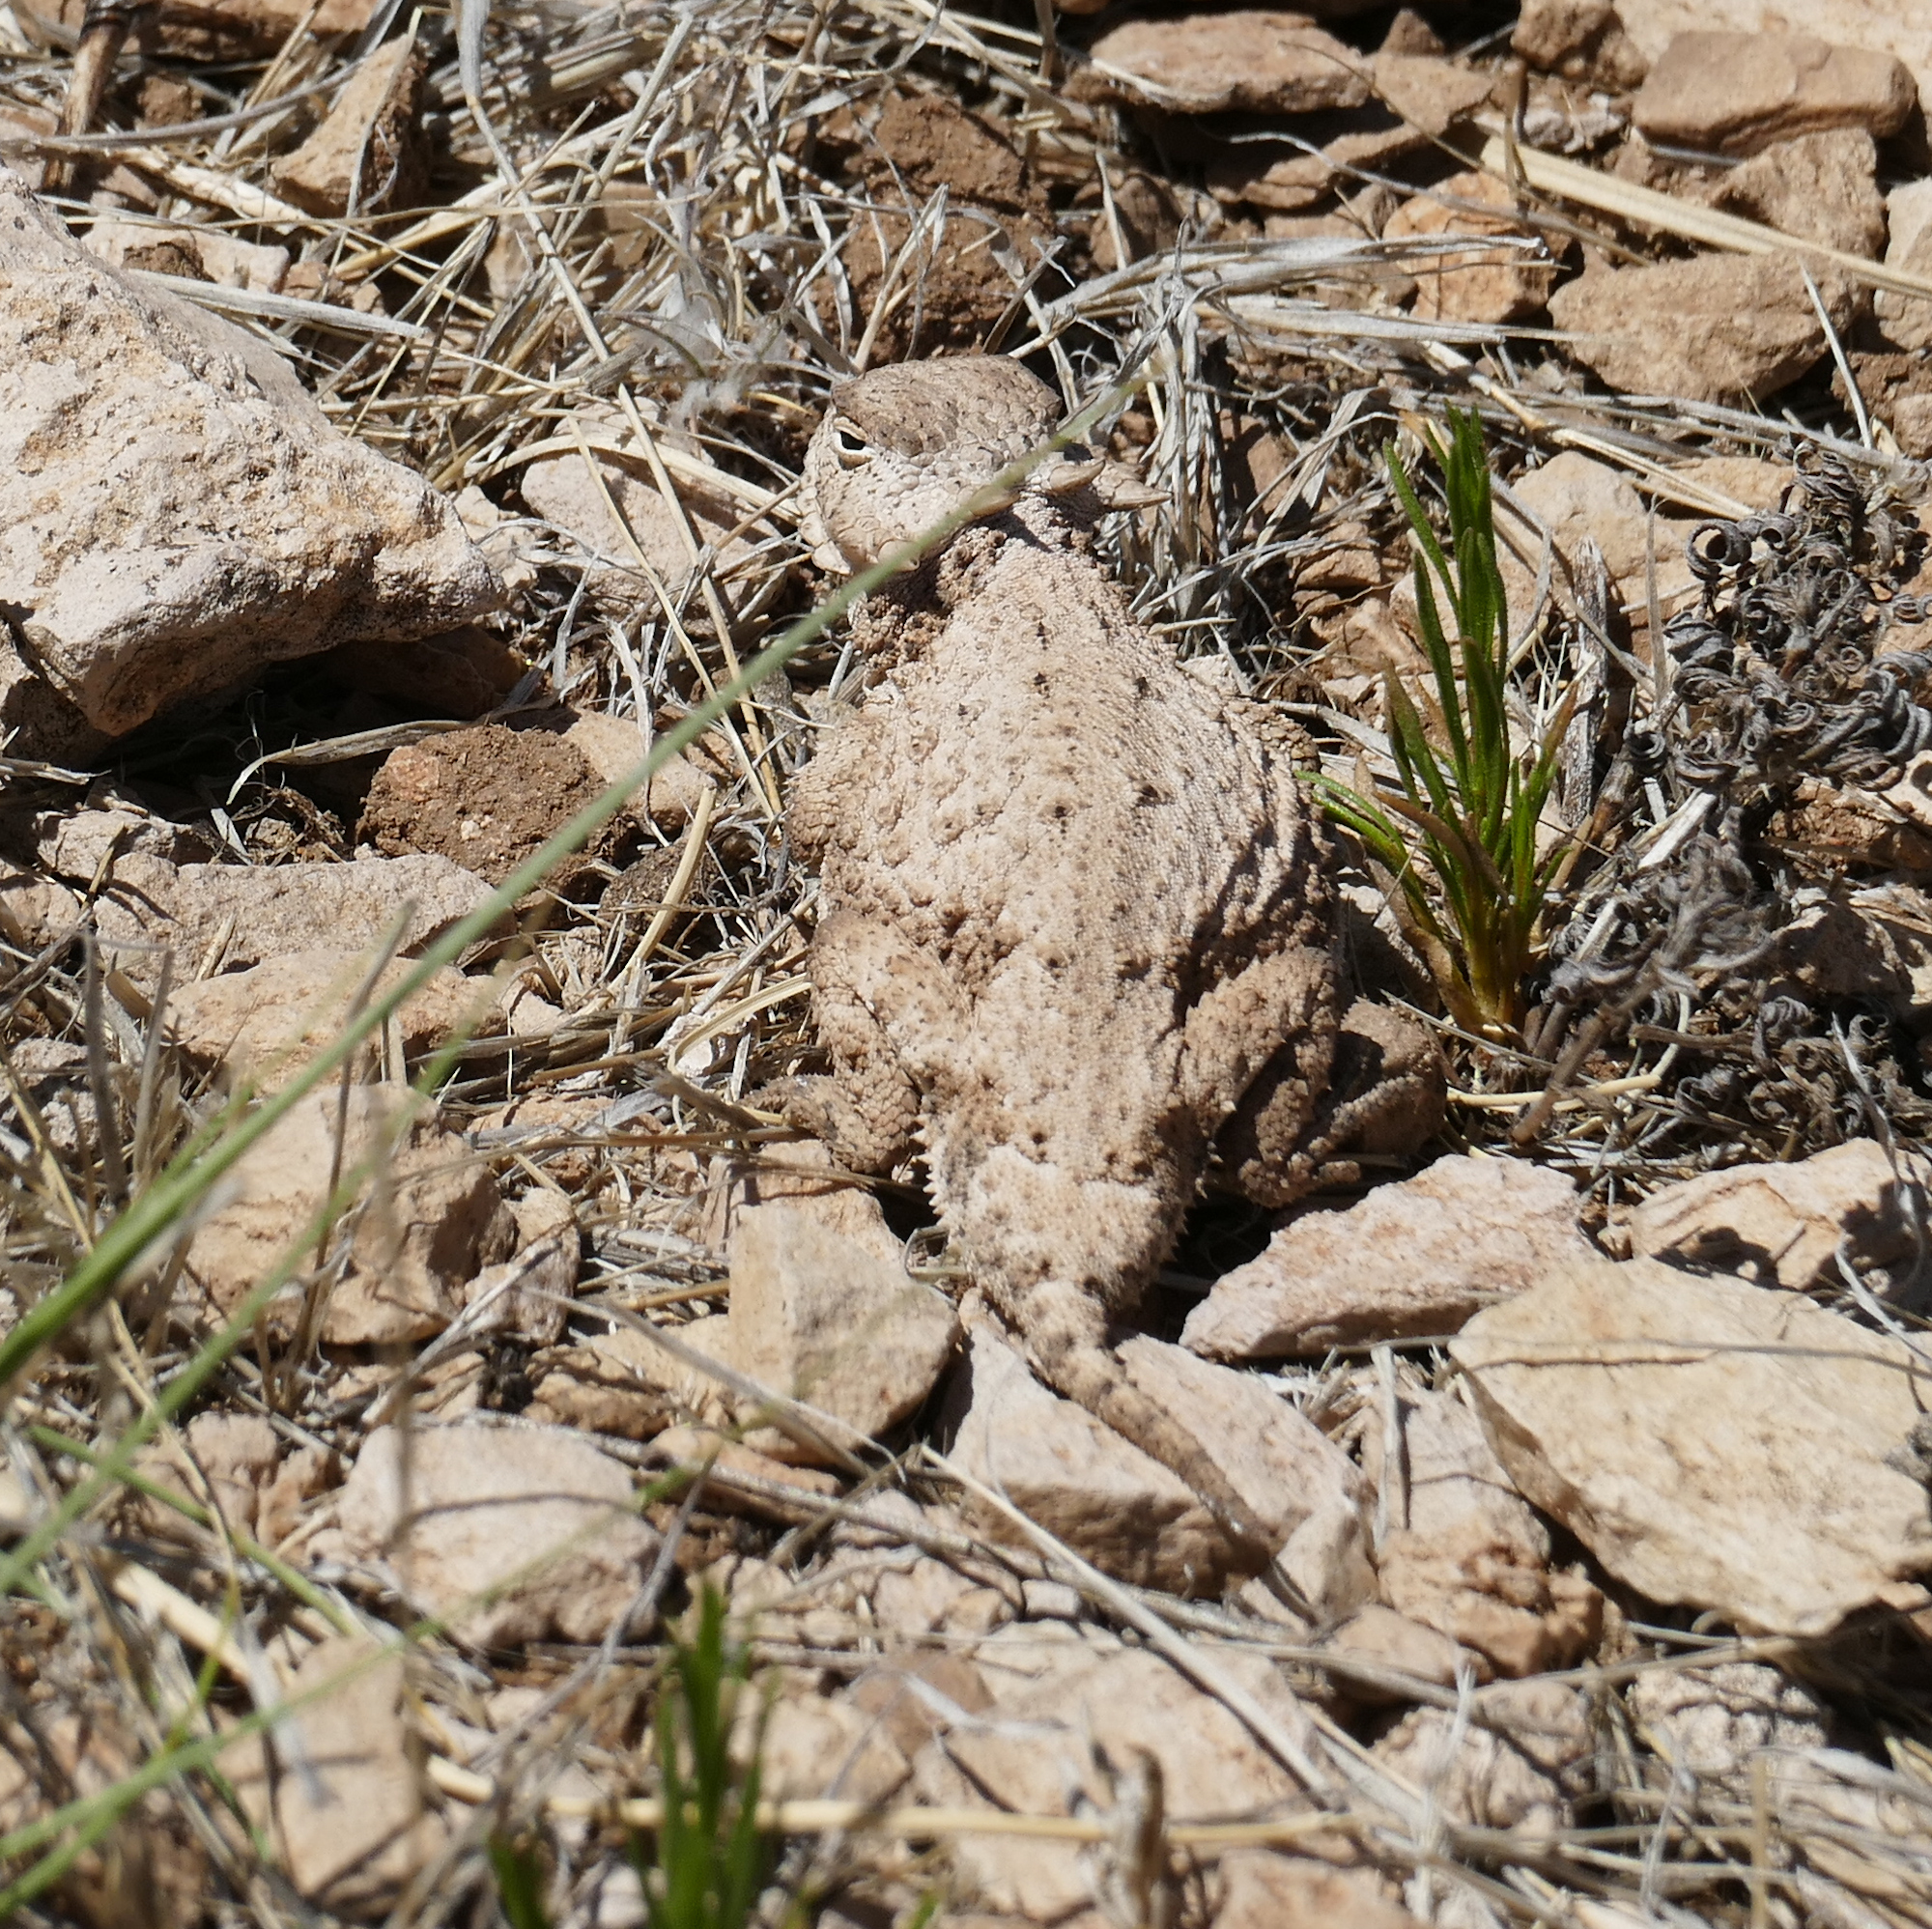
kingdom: Animalia
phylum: Chordata
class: Squamata
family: Phrynosomatidae
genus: Phrynosoma
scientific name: Phrynosoma modestum
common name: Roundtail horned lizard
